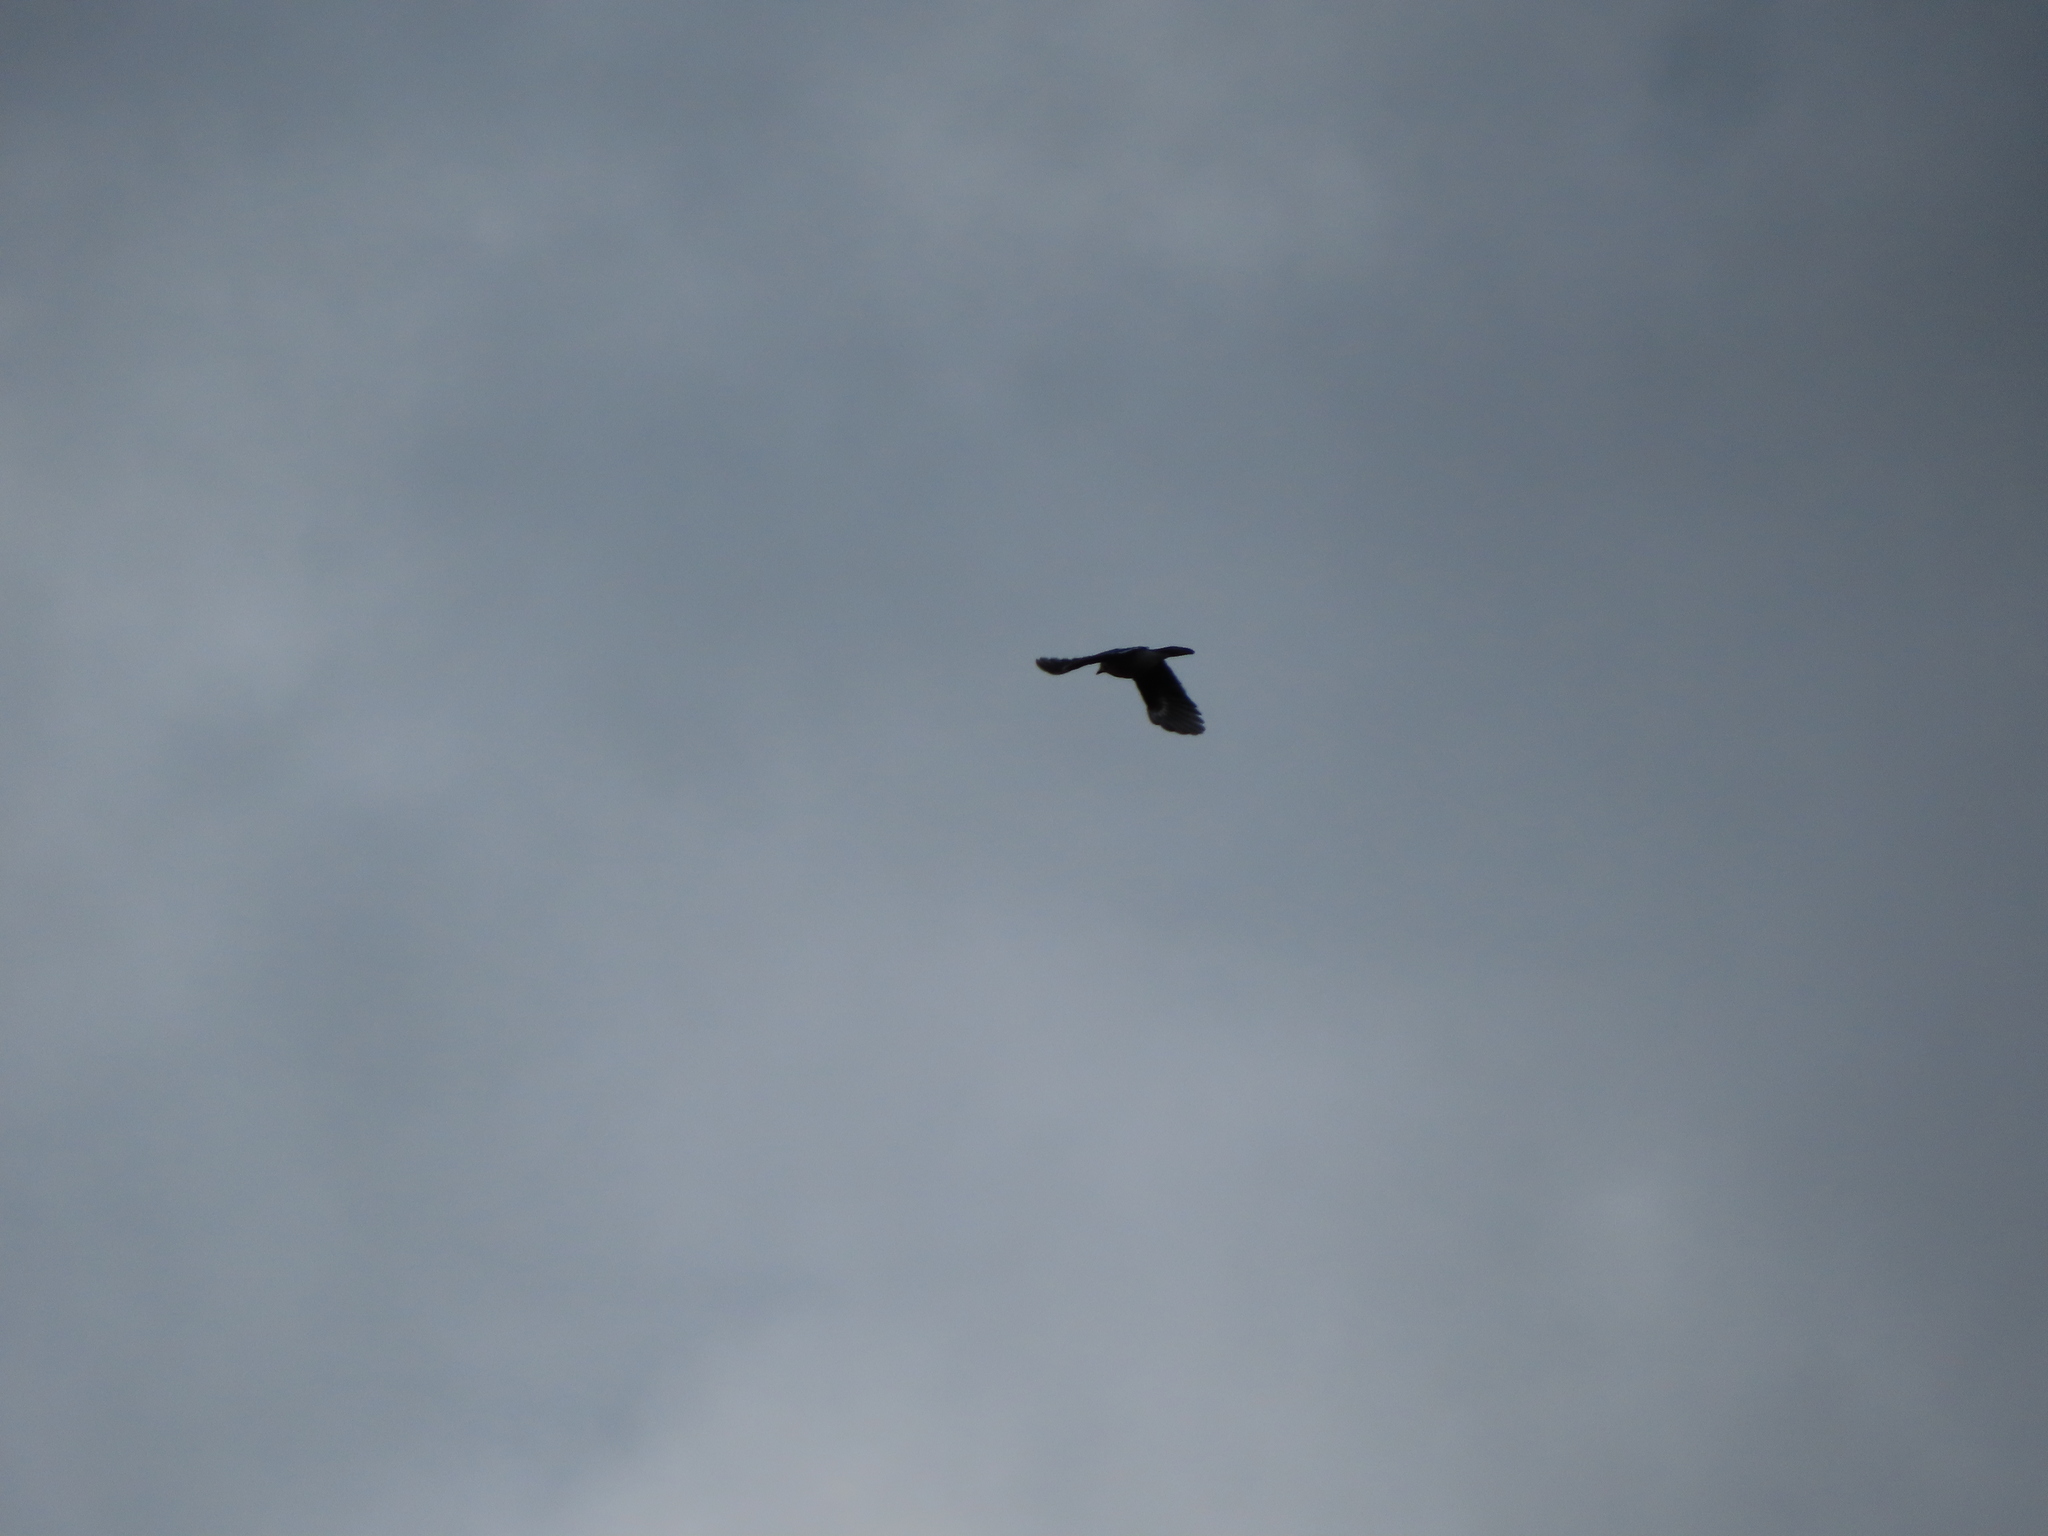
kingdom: Animalia
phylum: Chordata
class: Aves
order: Passeriformes
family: Corvidae
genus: Cyanocitta
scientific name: Cyanocitta cristata
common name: Blue jay
